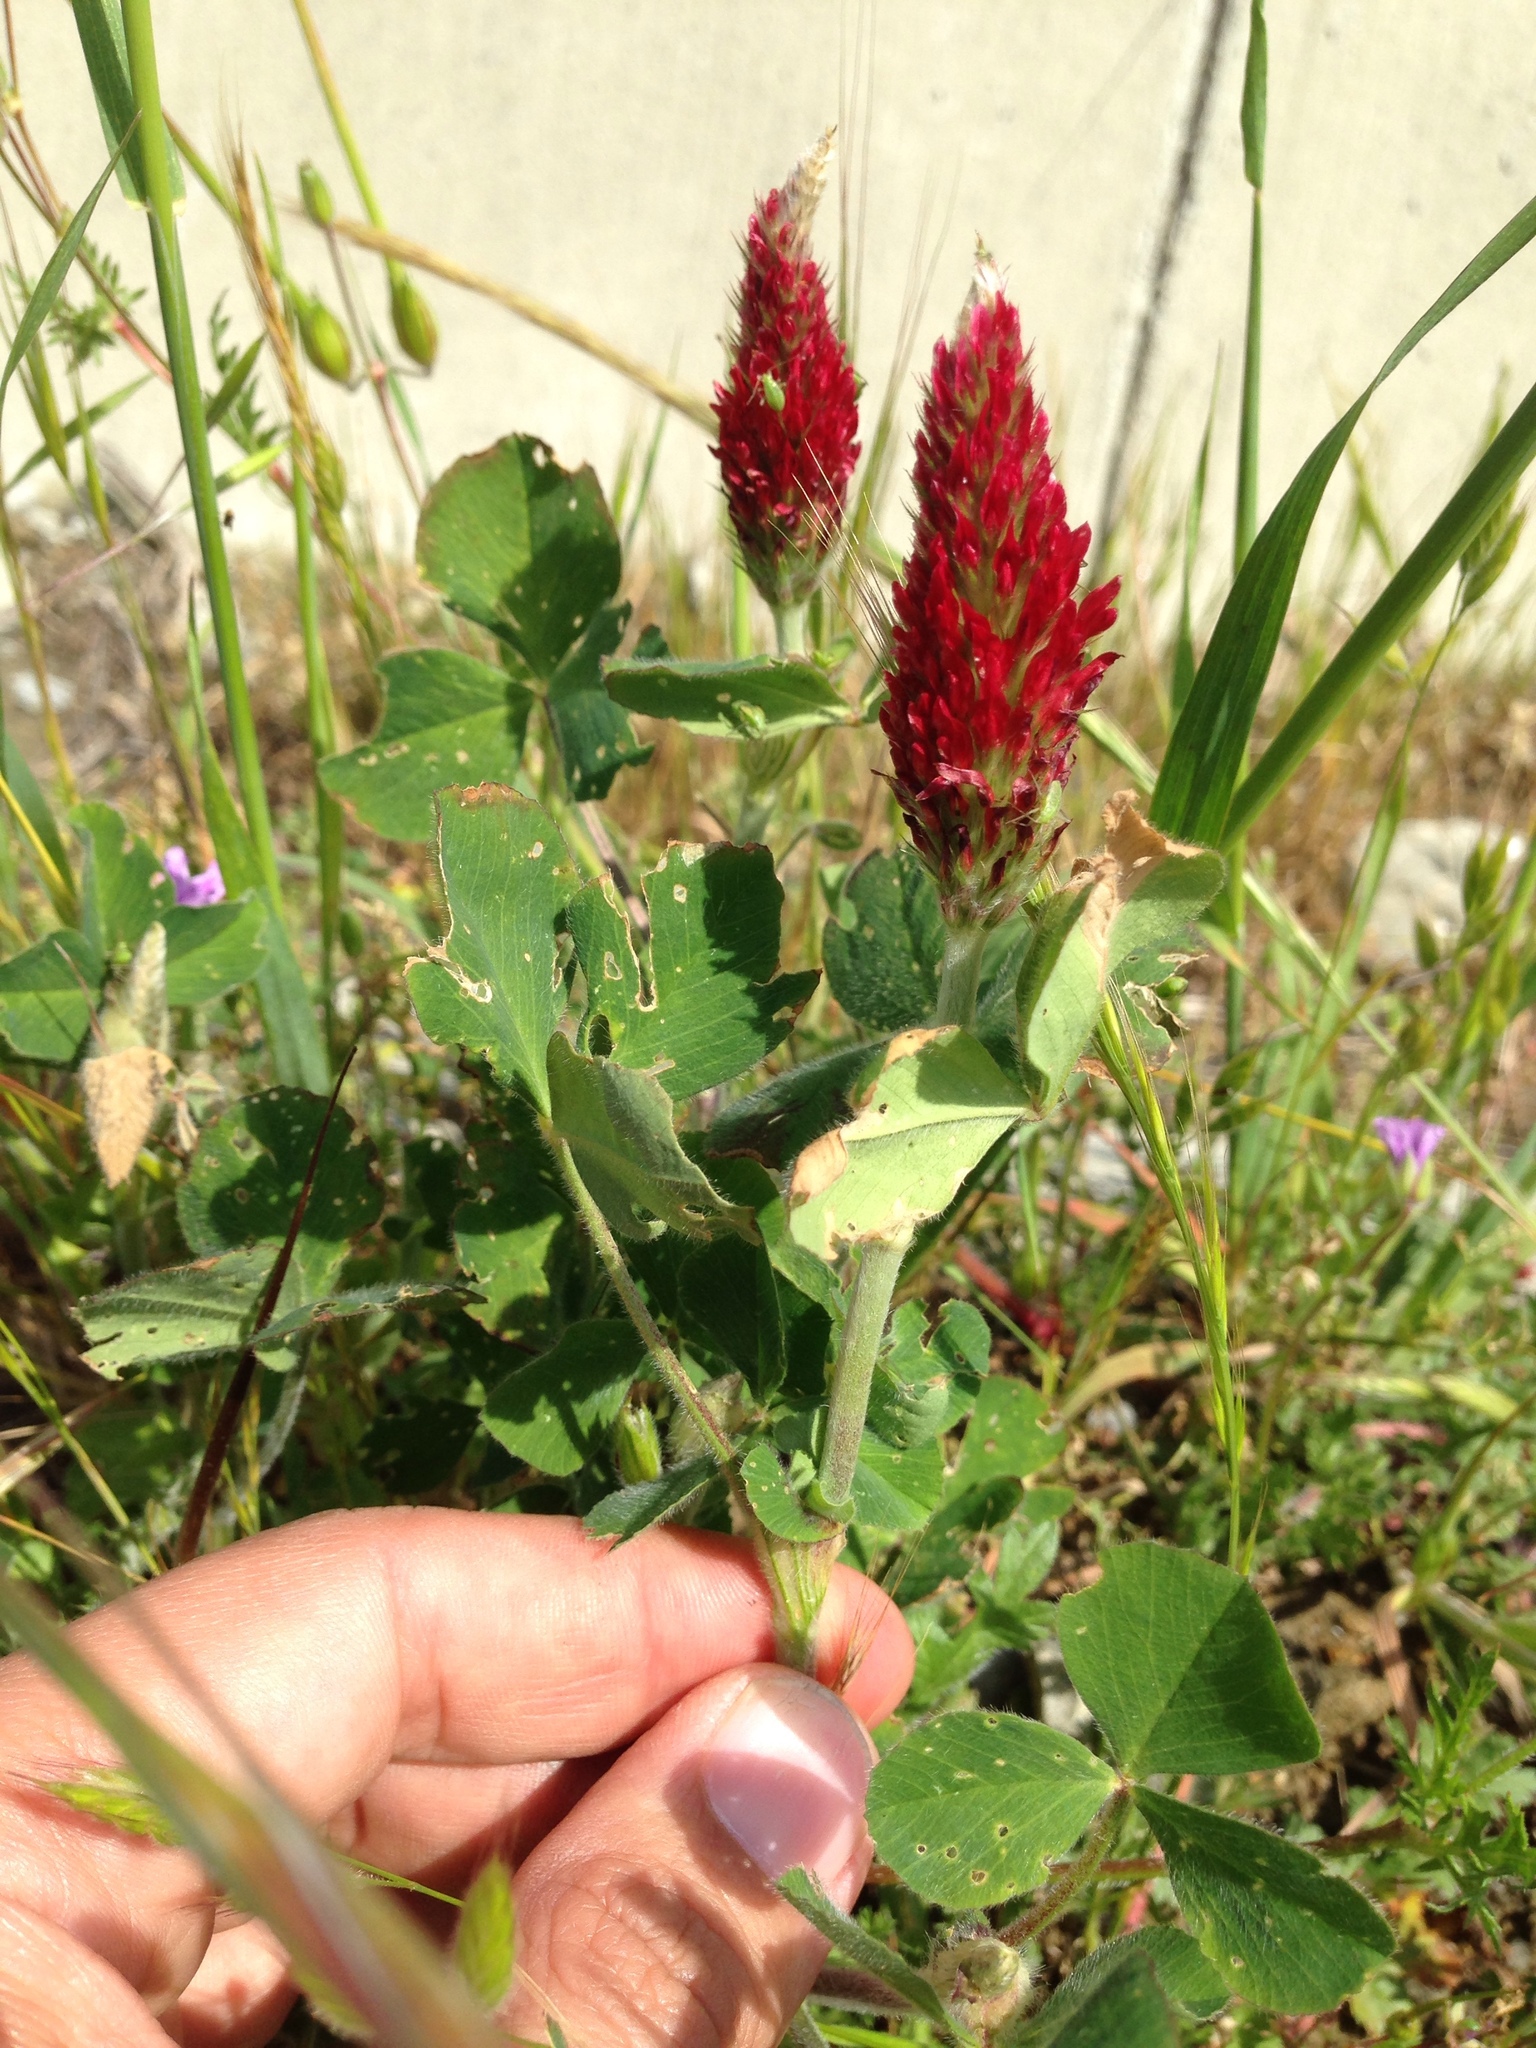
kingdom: Plantae
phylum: Tracheophyta
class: Magnoliopsida
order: Fabales
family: Fabaceae
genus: Trifolium
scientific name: Trifolium incarnatum
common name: Crimson clover
